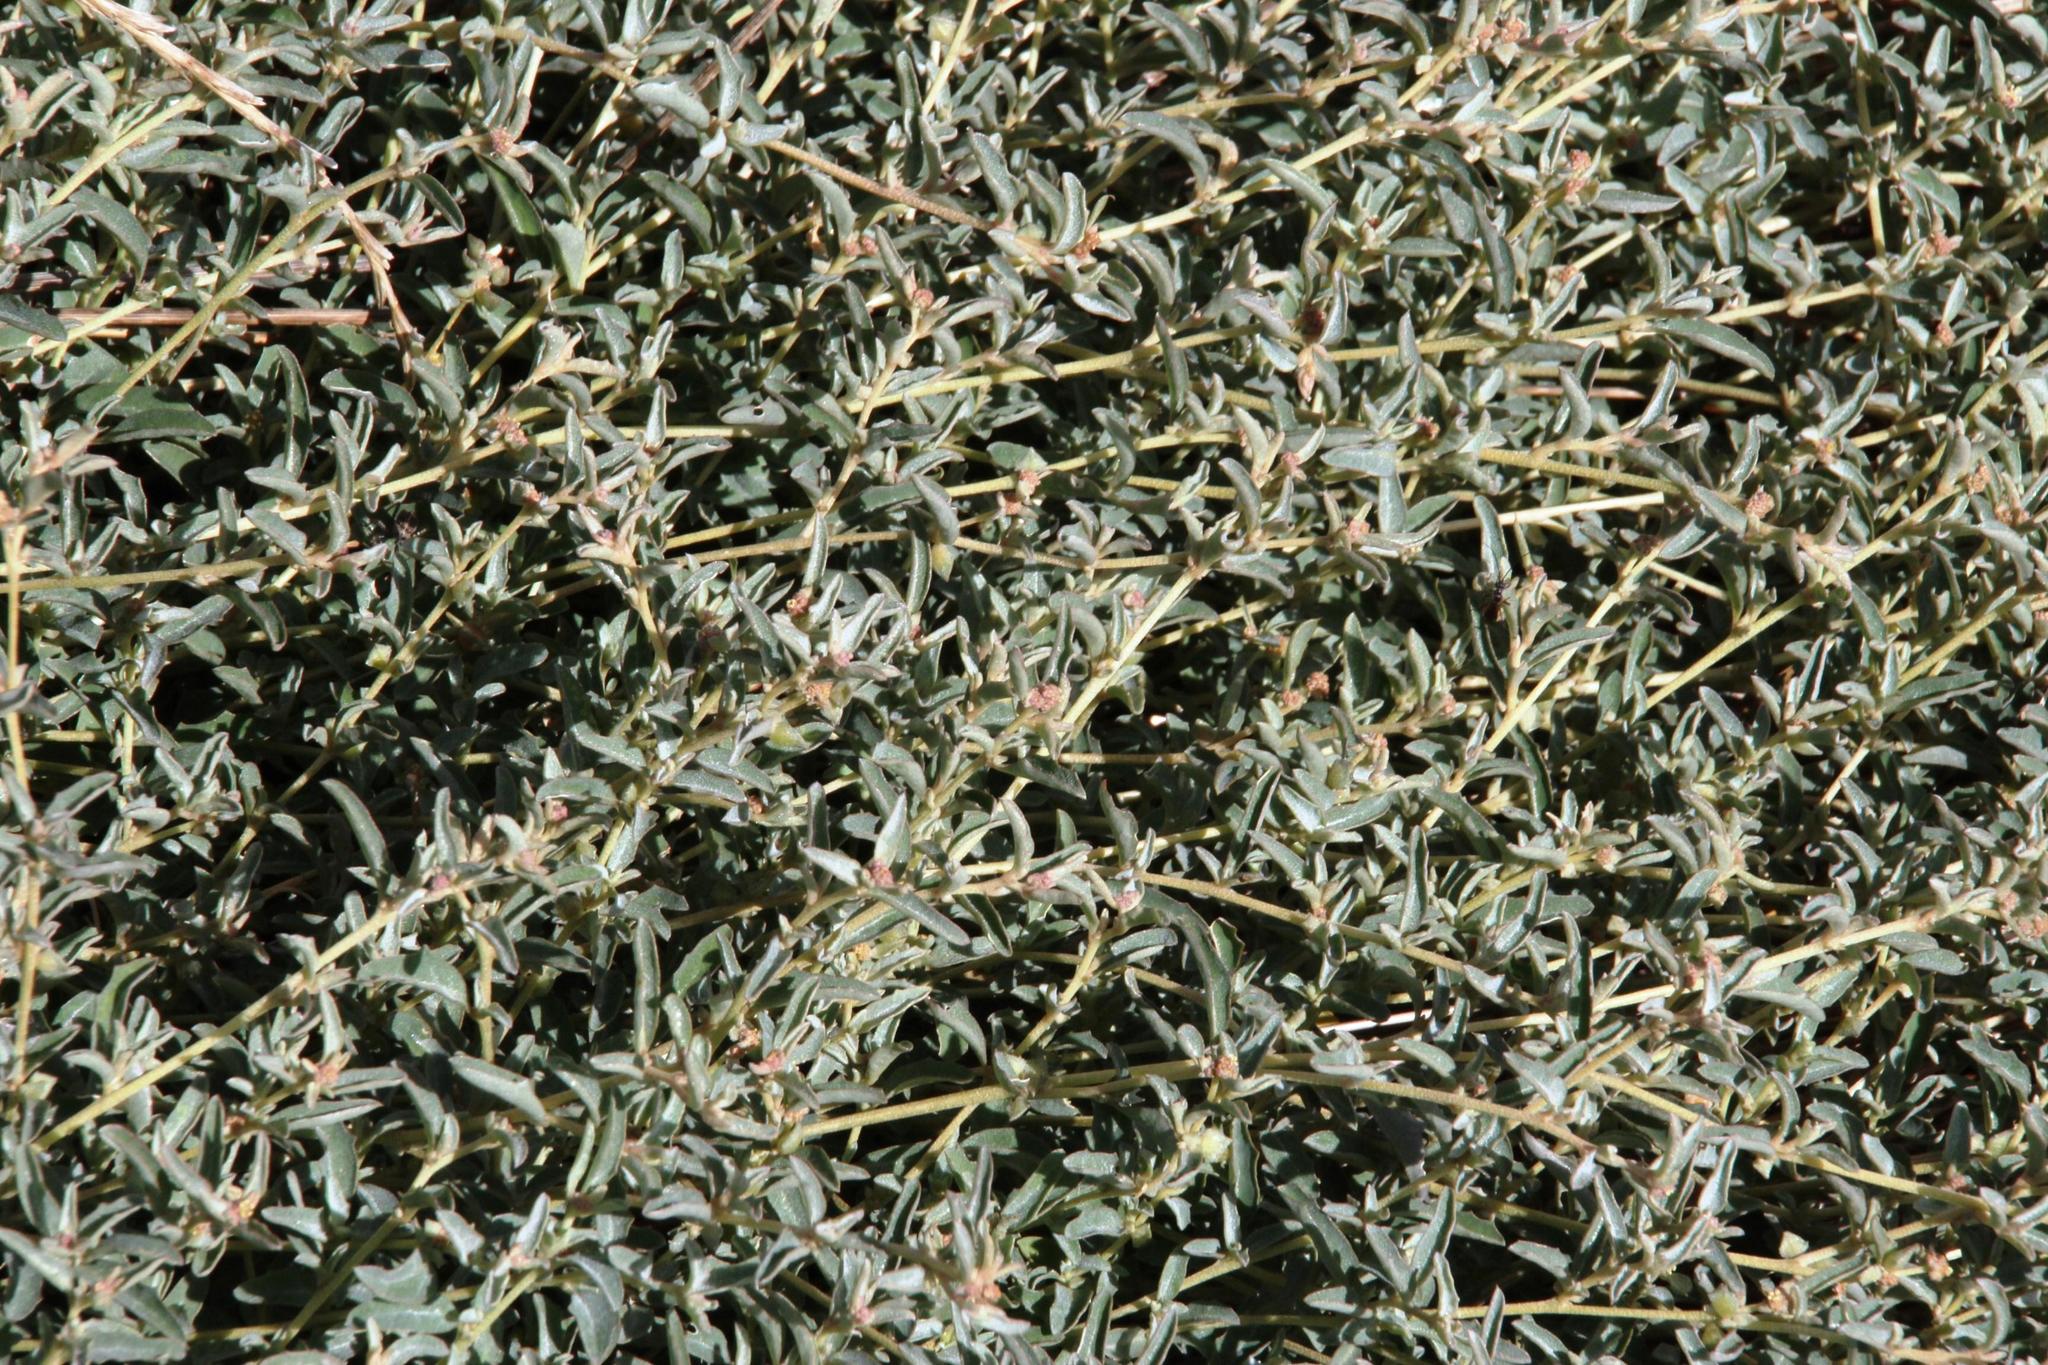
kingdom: Plantae
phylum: Tracheophyta
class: Magnoliopsida
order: Caryophyllales
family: Amaranthaceae
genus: Atriplex
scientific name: Atriplex semibaccata
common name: Australian saltbush
